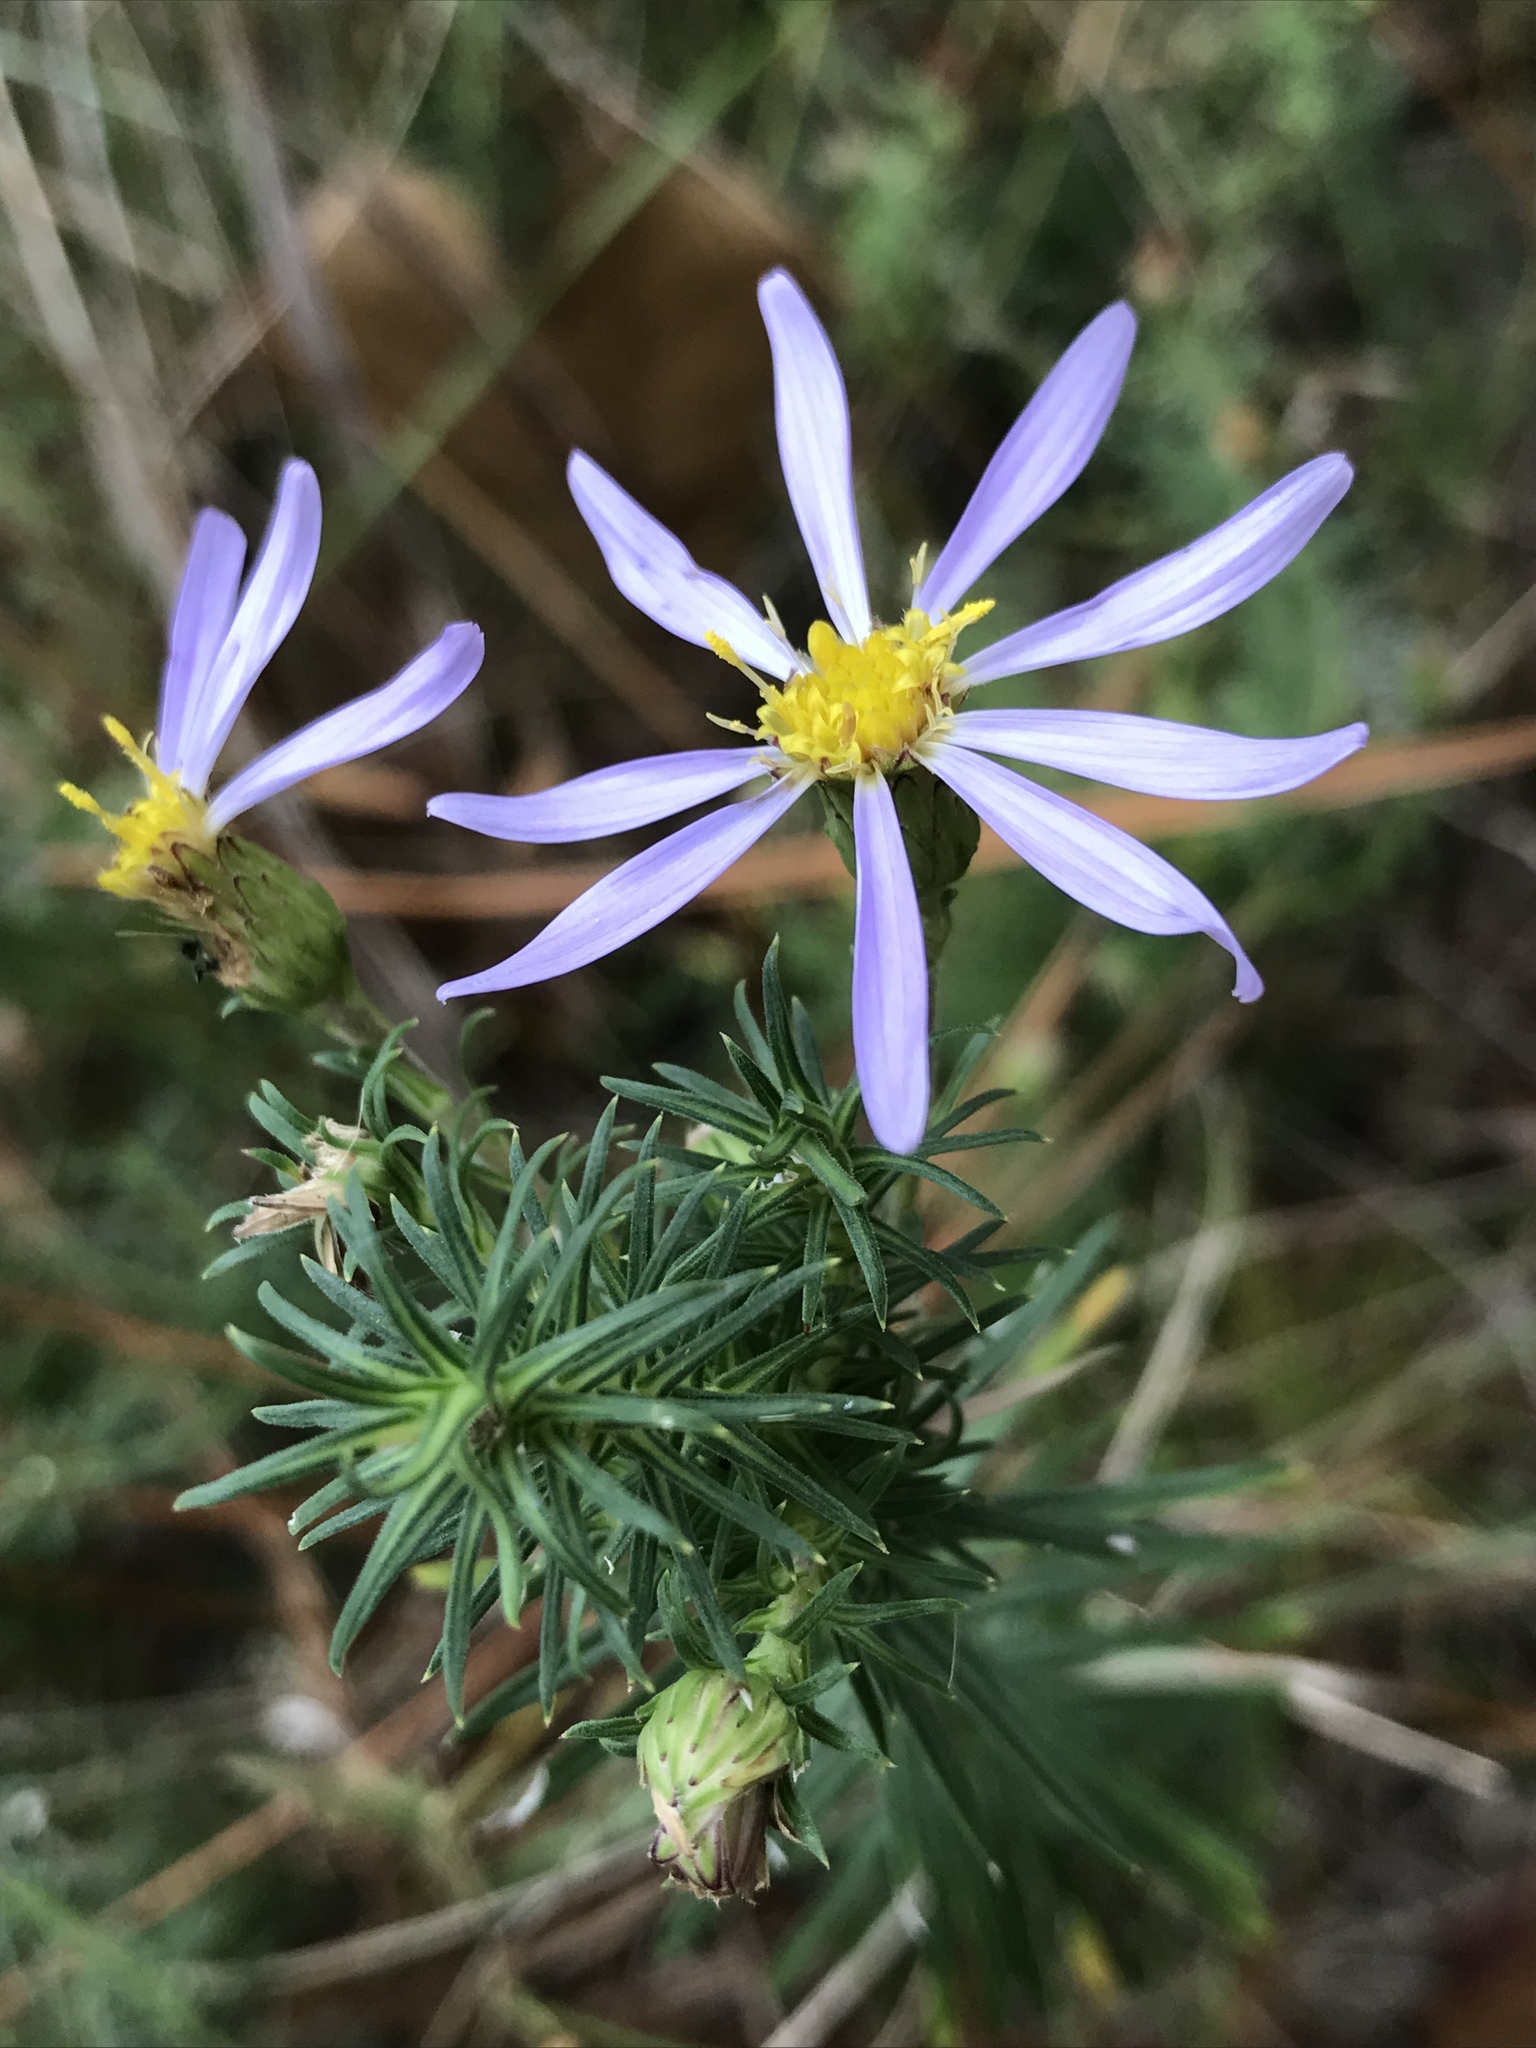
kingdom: Plantae
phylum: Tracheophyta
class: Magnoliopsida
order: Asterales
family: Asteraceae
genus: Ionactis
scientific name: Ionactis linariifolia
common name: Flax-leaf aster
